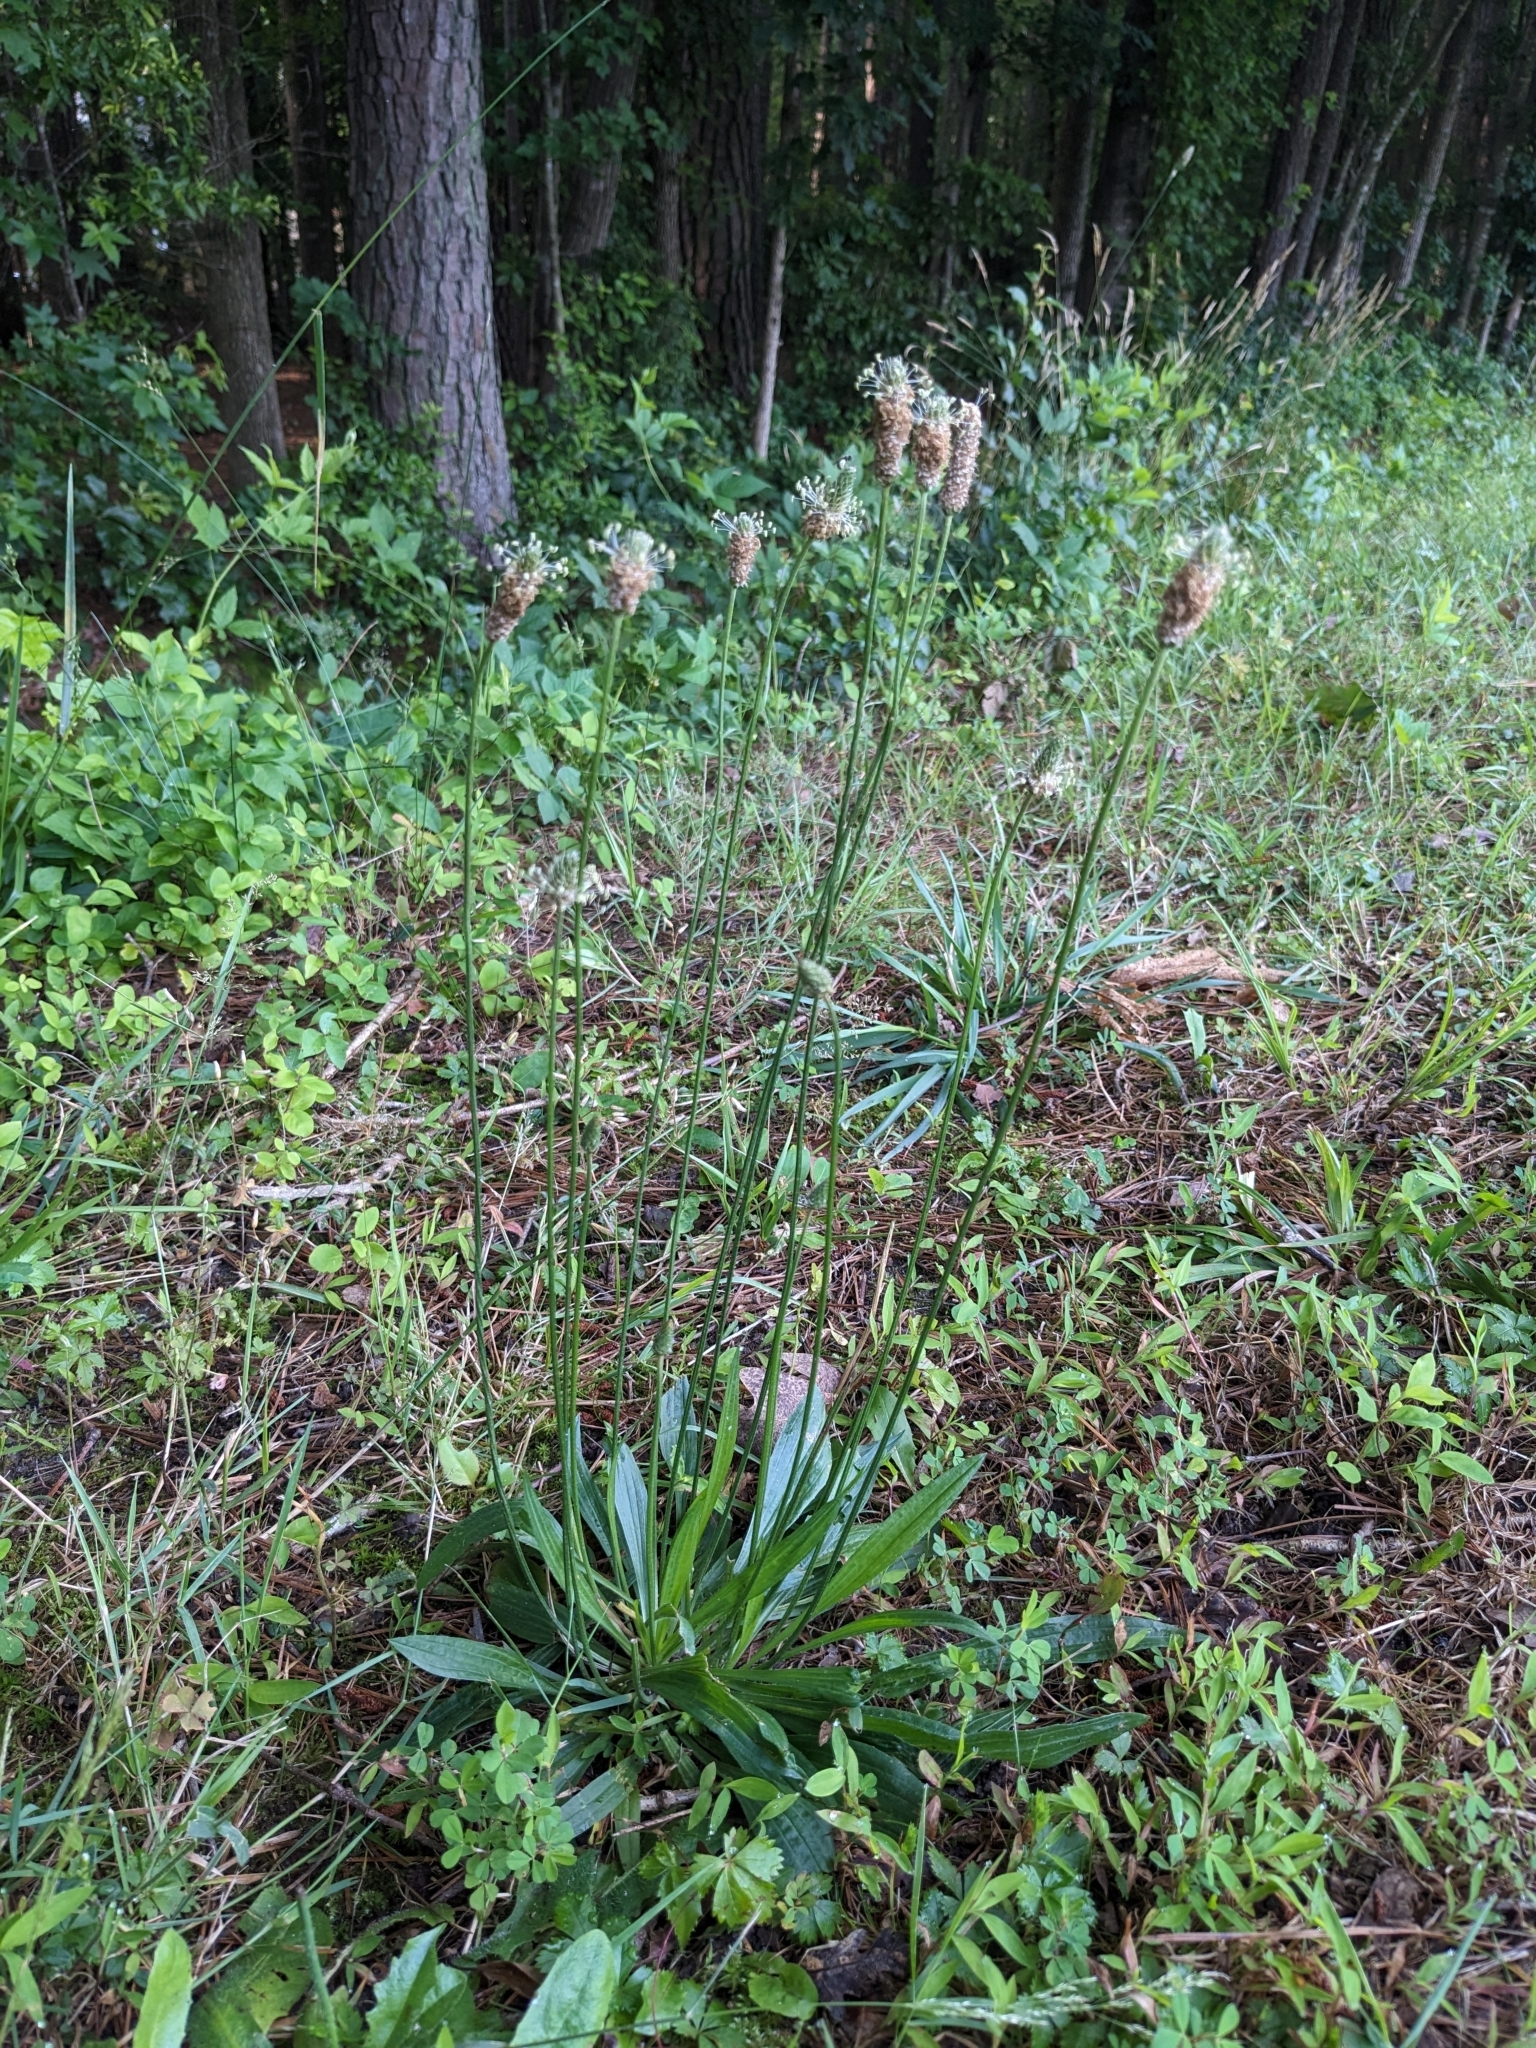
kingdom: Plantae
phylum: Tracheophyta
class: Magnoliopsida
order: Lamiales
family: Plantaginaceae
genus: Plantago
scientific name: Plantago lanceolata
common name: Ribwort plantain
